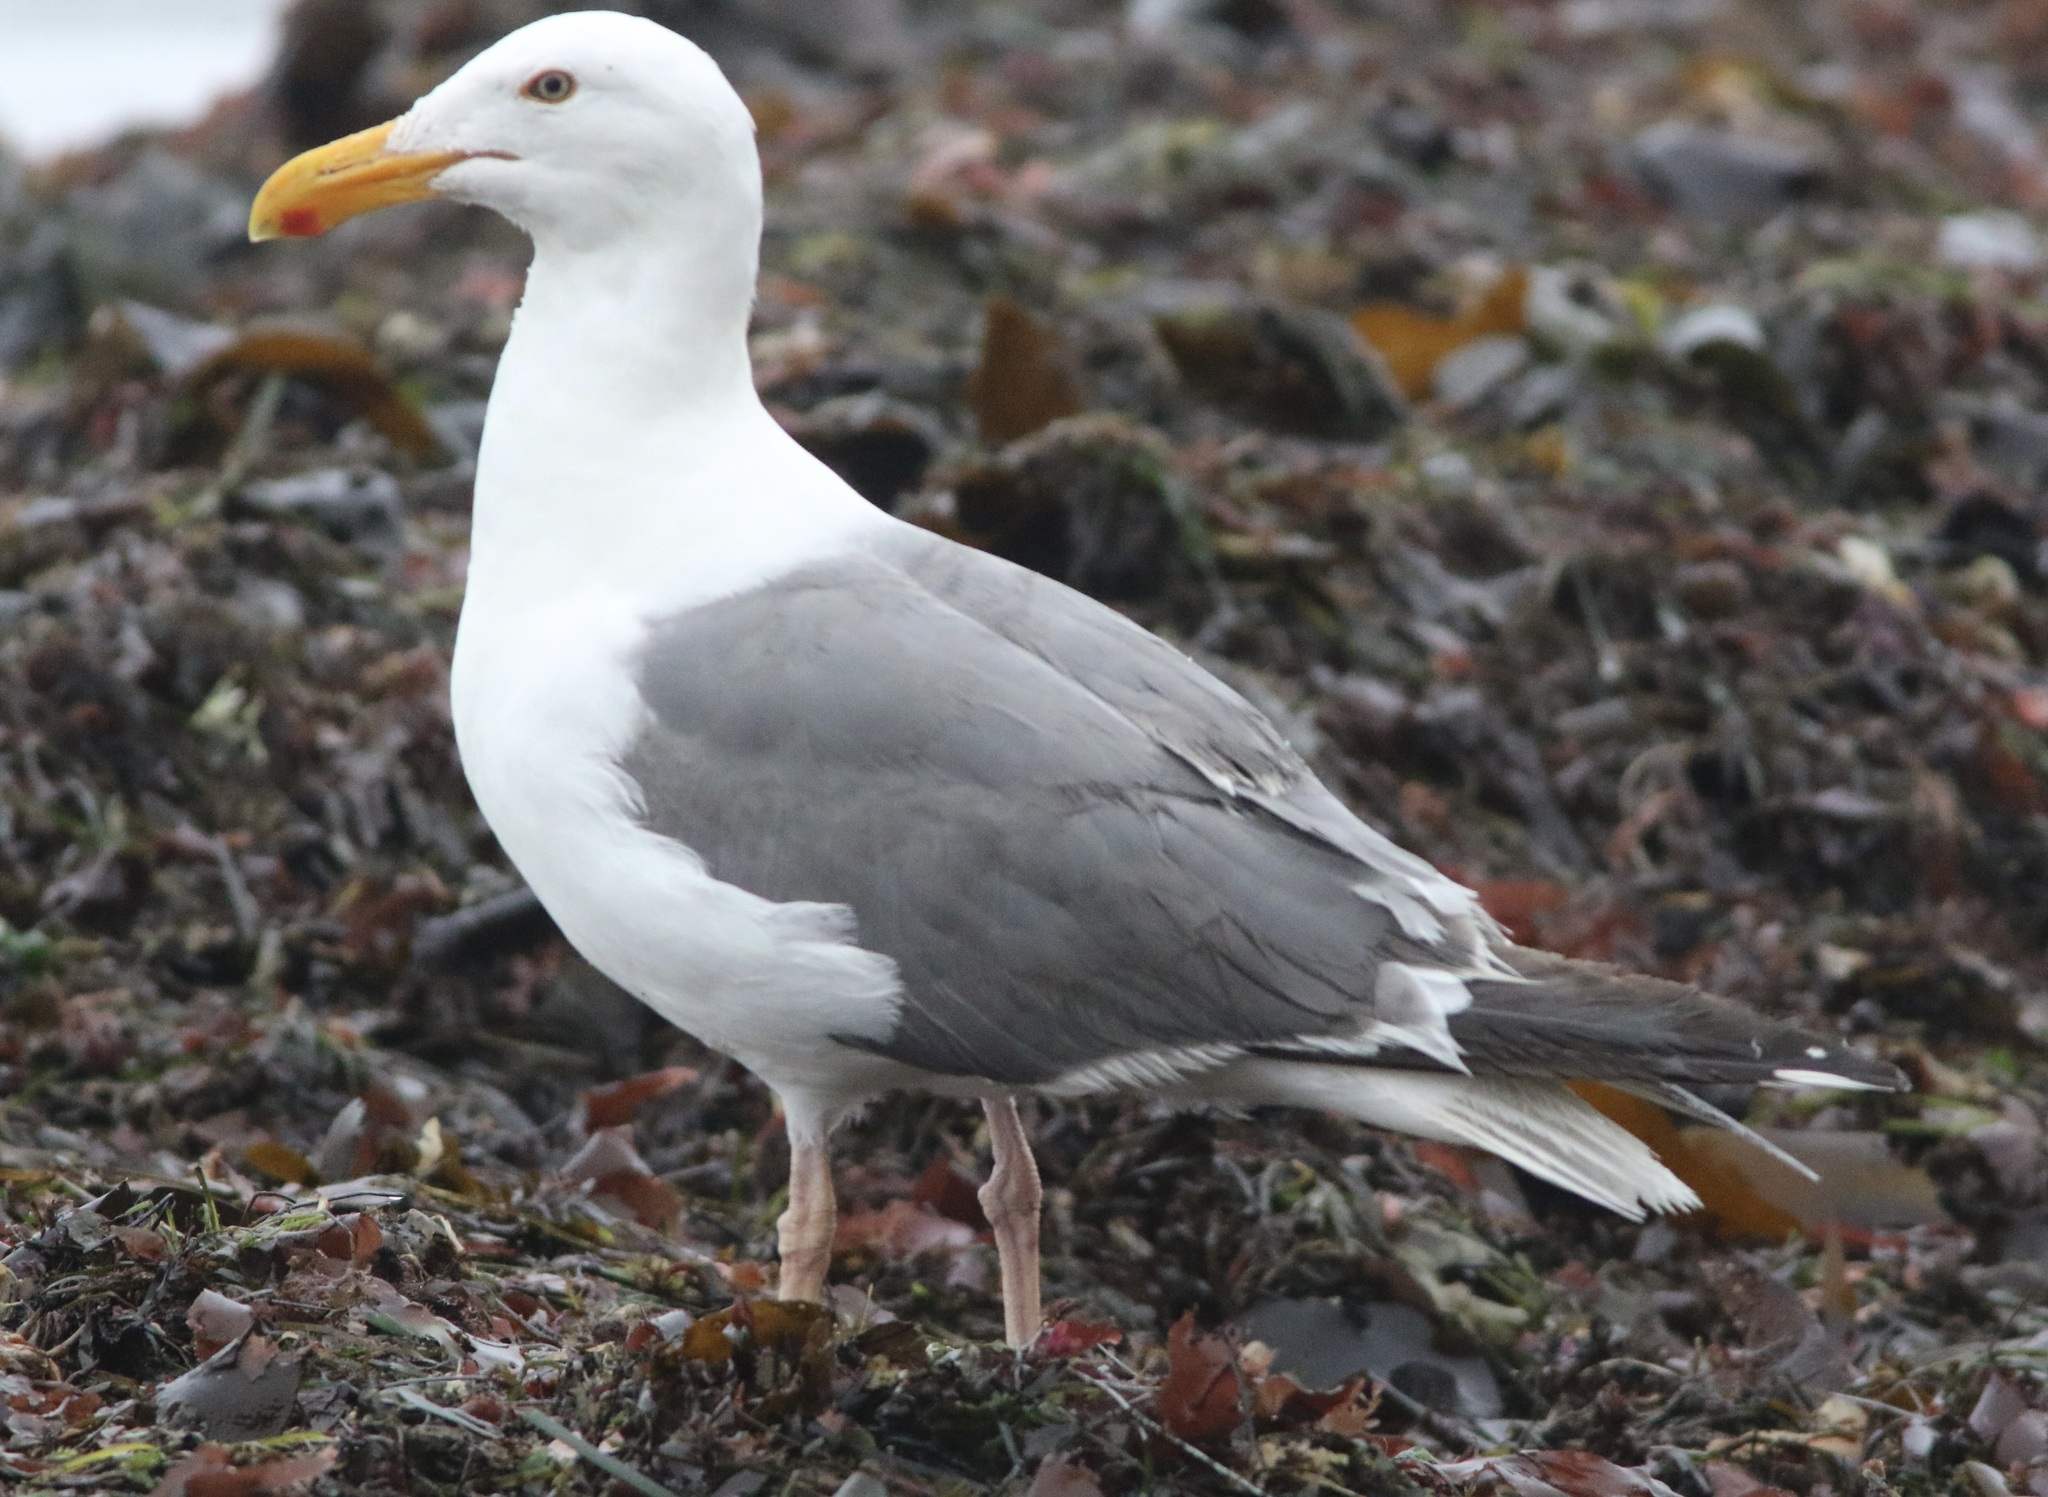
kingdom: Animalia
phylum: Chordata
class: Aves
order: Charadriiformes
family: Laridae
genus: Larus
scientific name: Larus occidentalis
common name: Western gull
